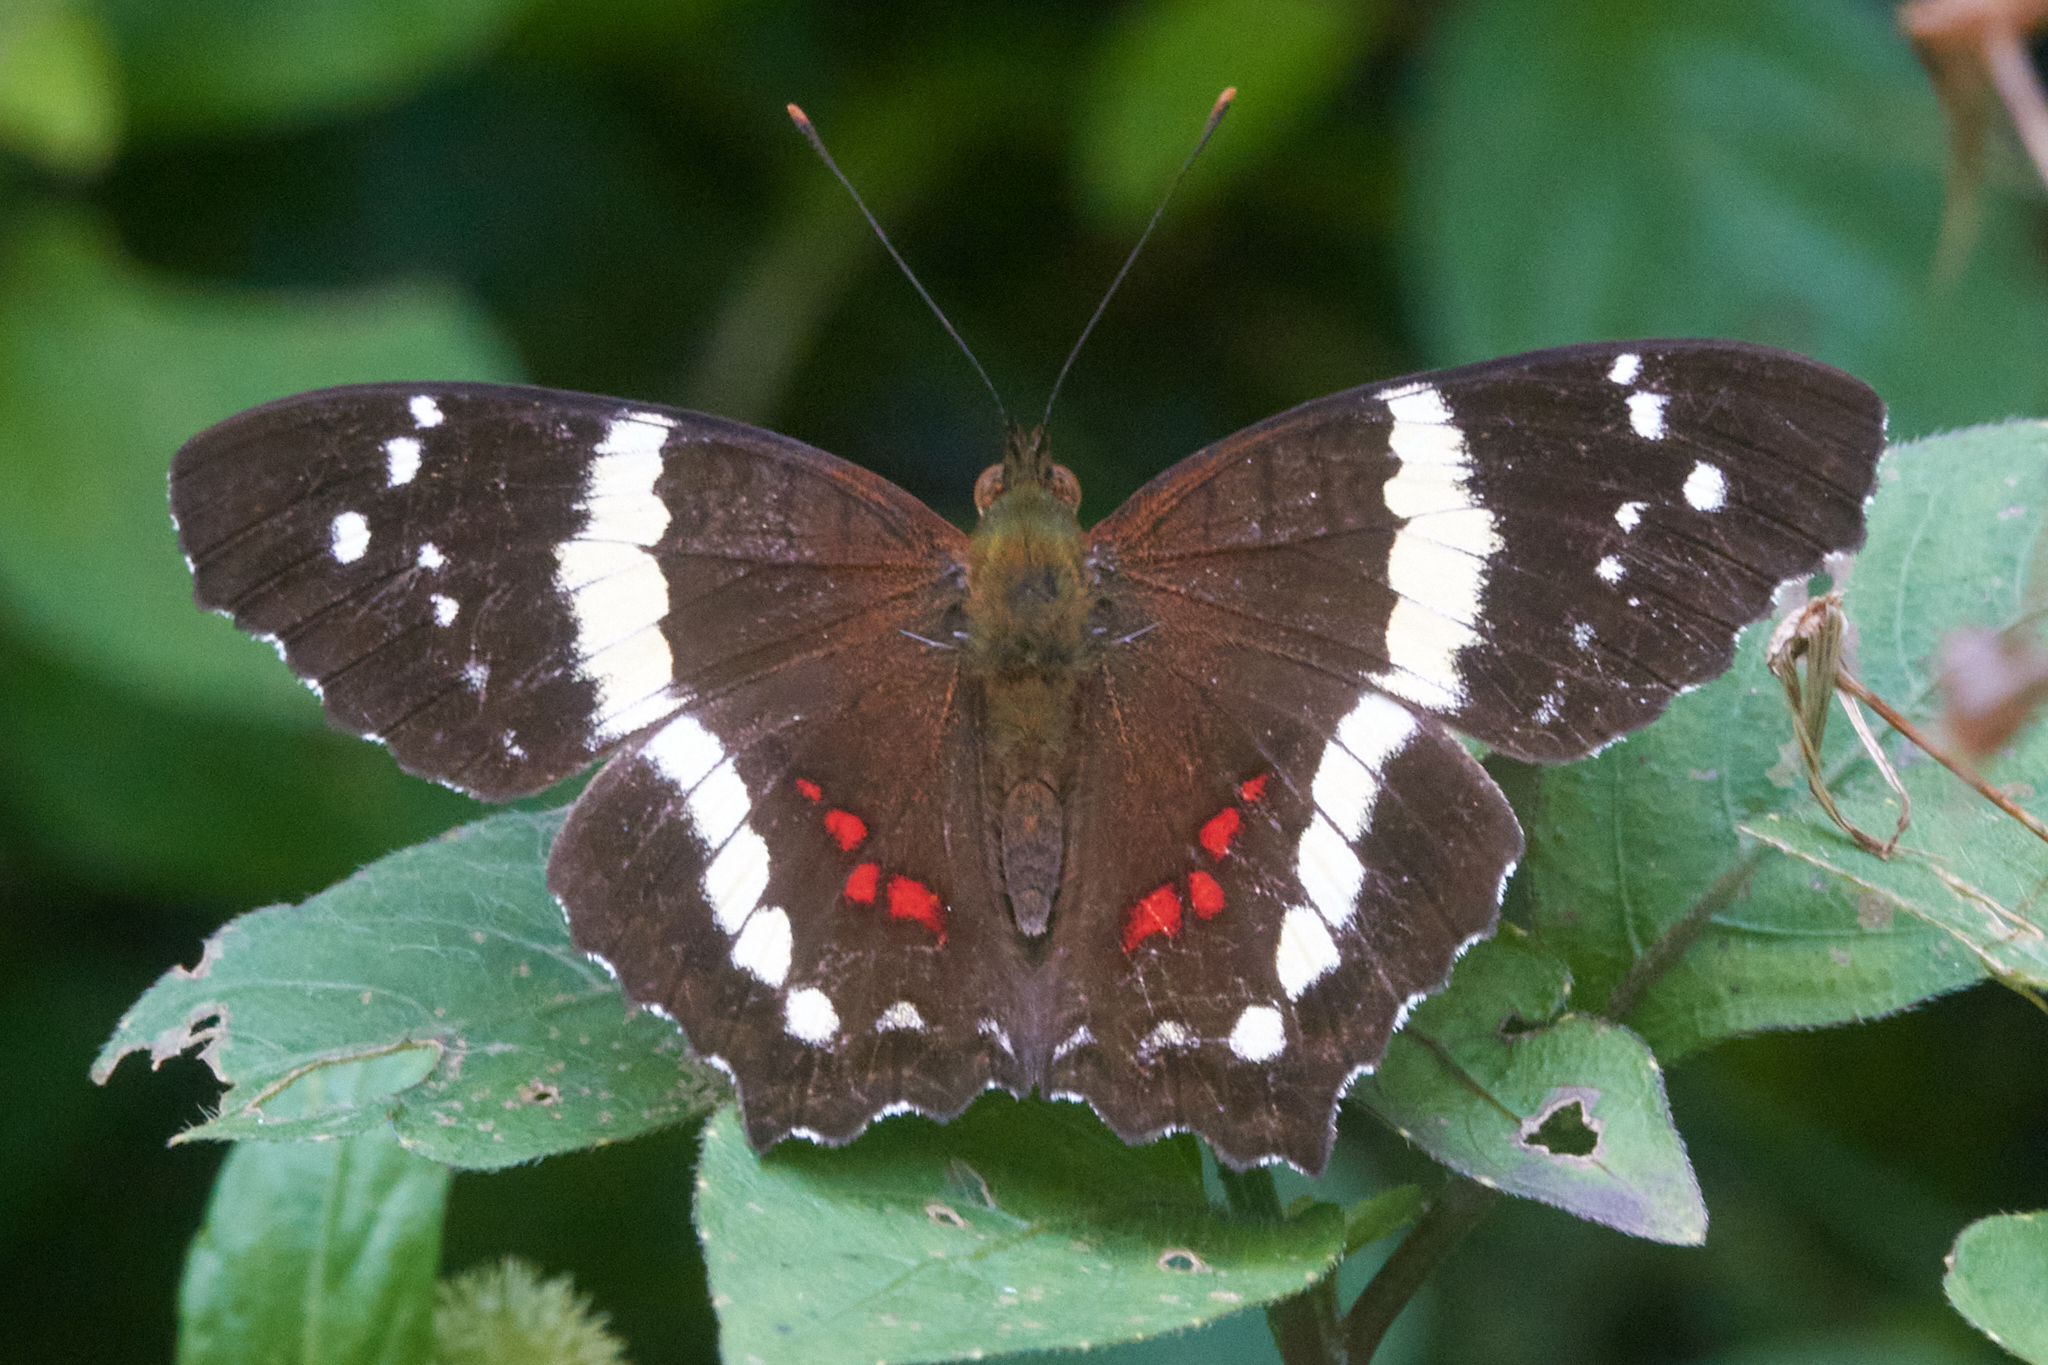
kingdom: Animalia
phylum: Arthropoda
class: Insecta
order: Lepidoptera
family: Nymphalidae
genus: Anartia
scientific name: Anartia fatima
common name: Banded peacock
